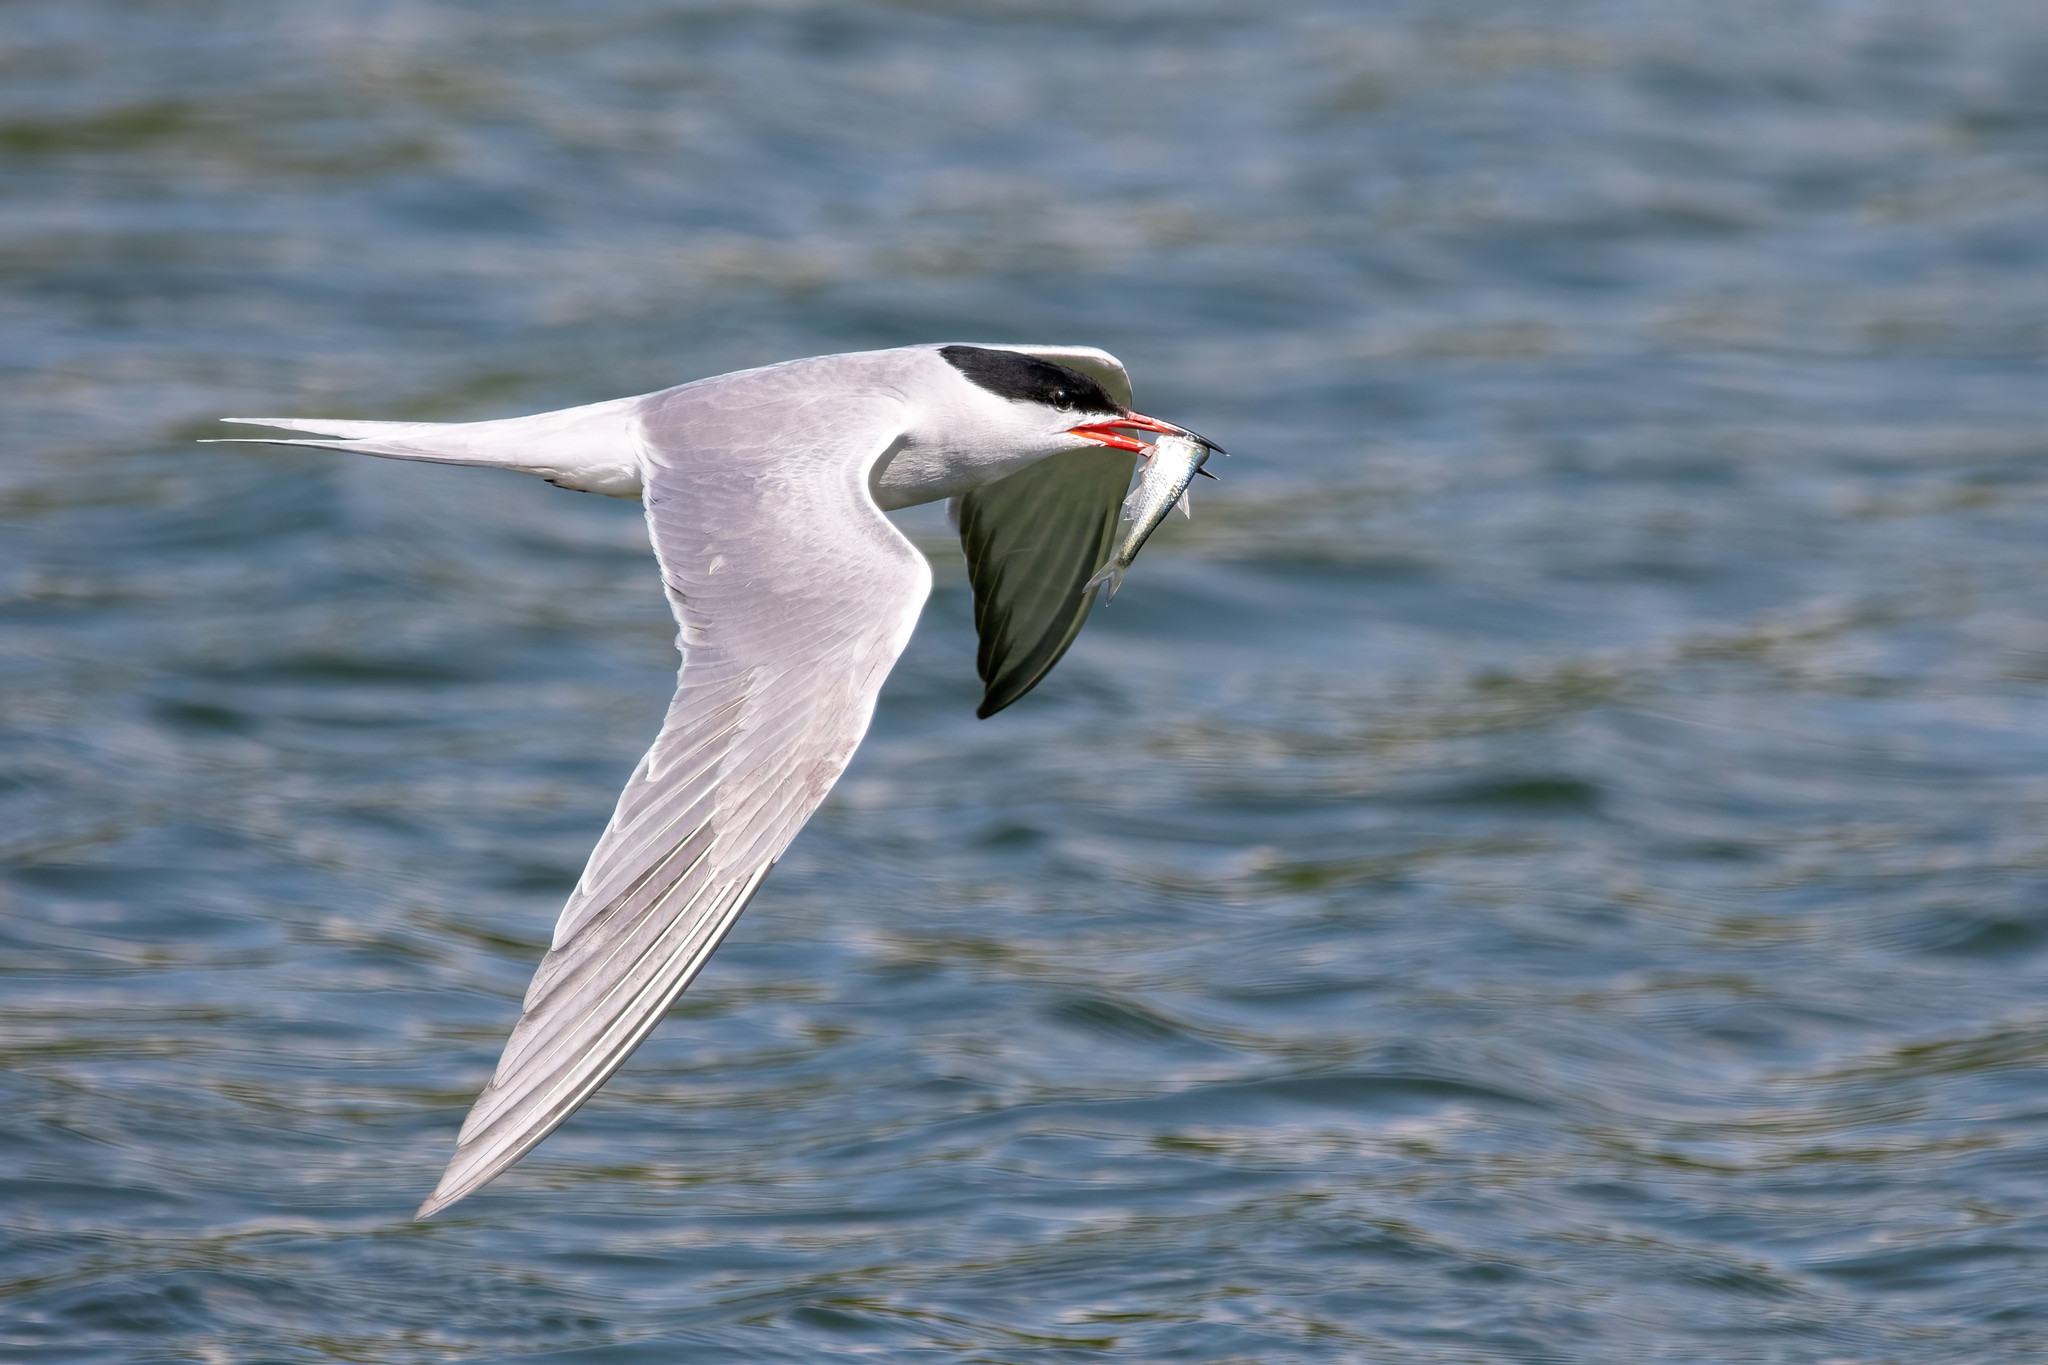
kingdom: Animalia
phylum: Chordata
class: Aves
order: Charadriiformes
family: Laridae
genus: Sterna
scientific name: Sterna hirundo
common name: Common tern
